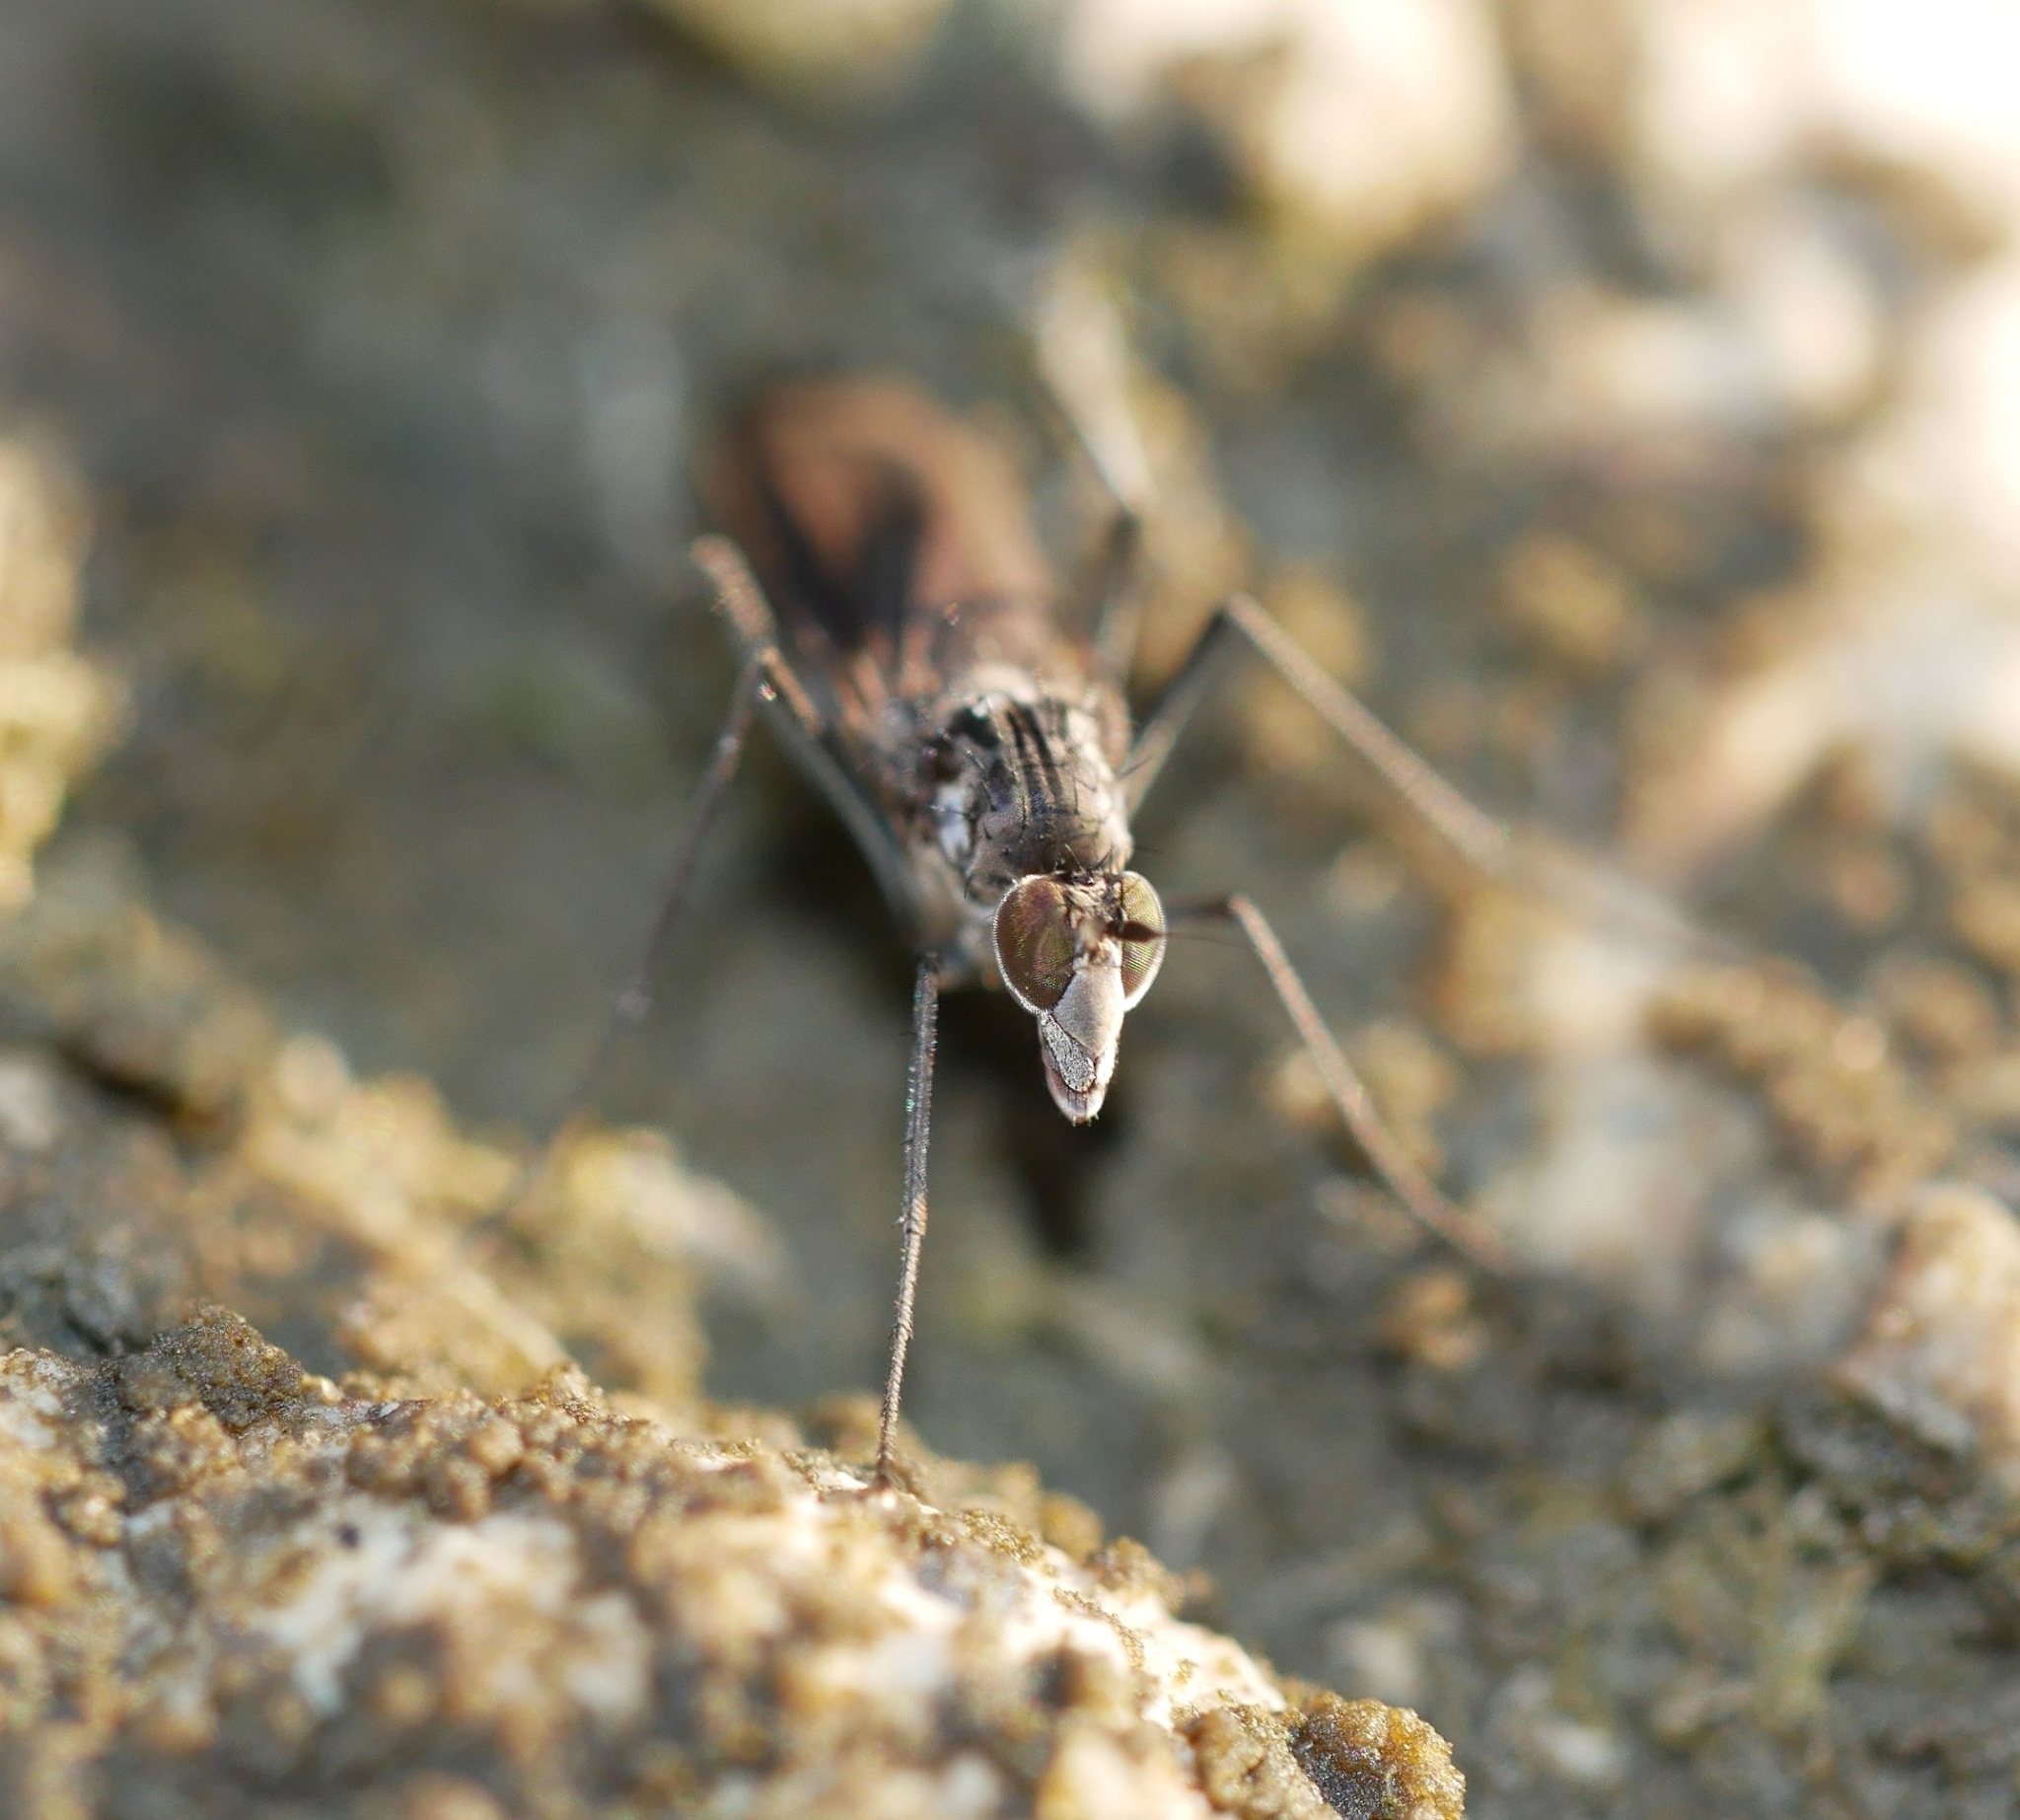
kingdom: Animalia
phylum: Arthropoda
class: Insecta
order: Diptera
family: Dolichopodidae
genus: Thambemyia
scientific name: Thambemyia borealis
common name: Fly
